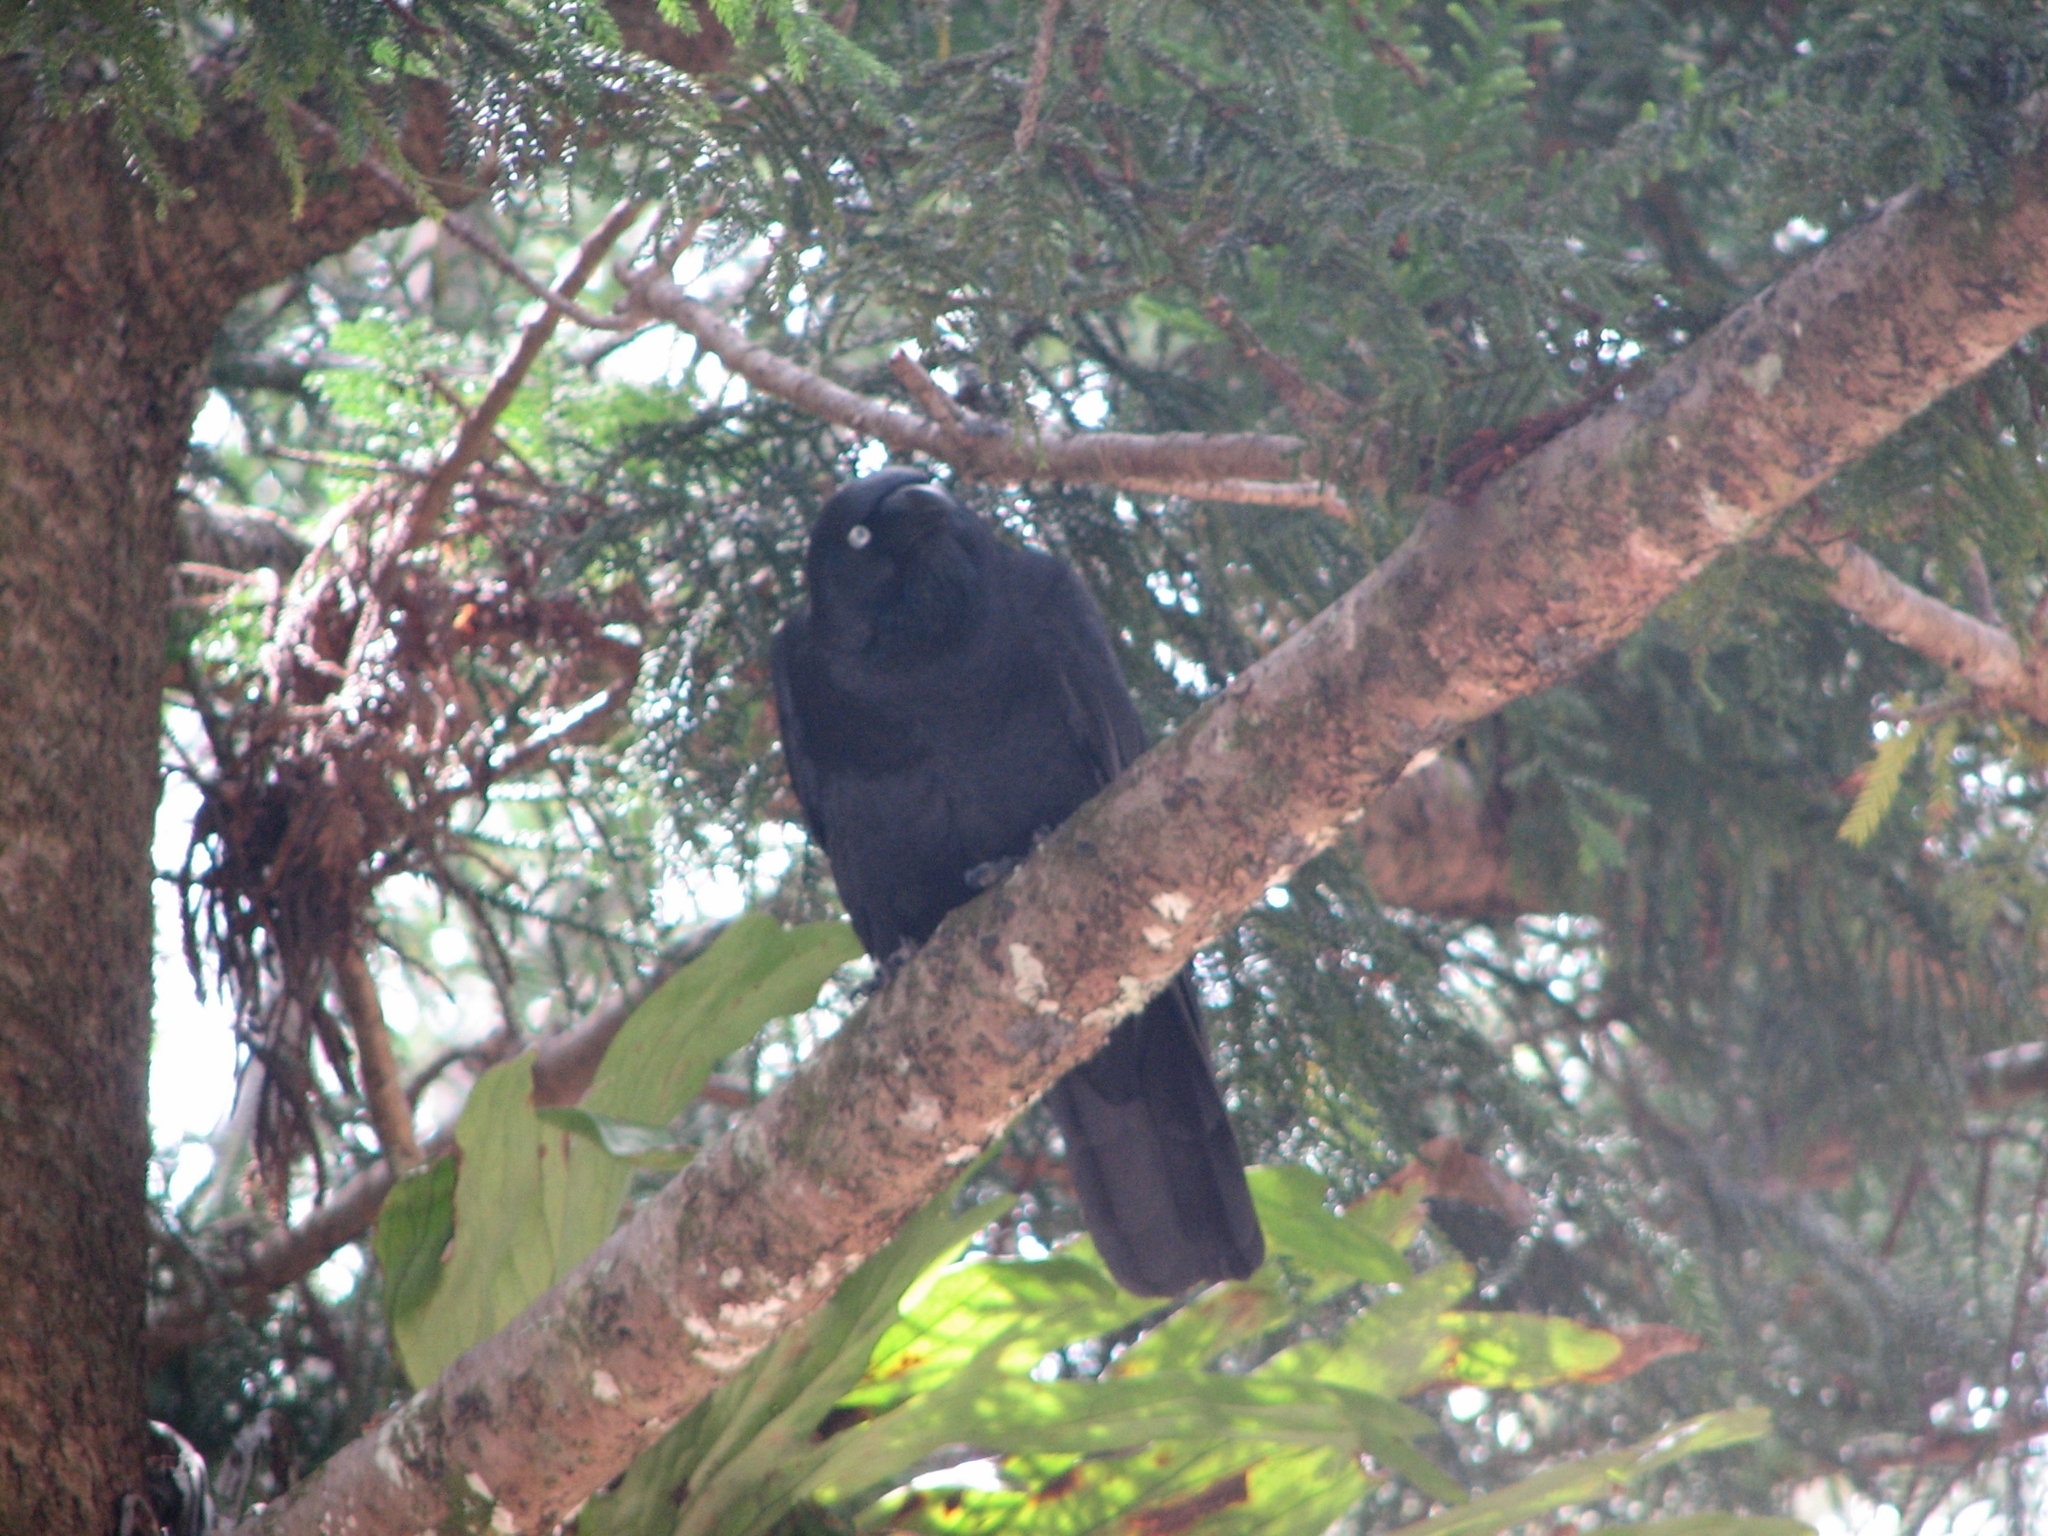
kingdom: Animalia
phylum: Chordata
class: Aves
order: Passeriformes
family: Corvidae
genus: Corvus
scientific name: Corvus orru
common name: Torresian crow
